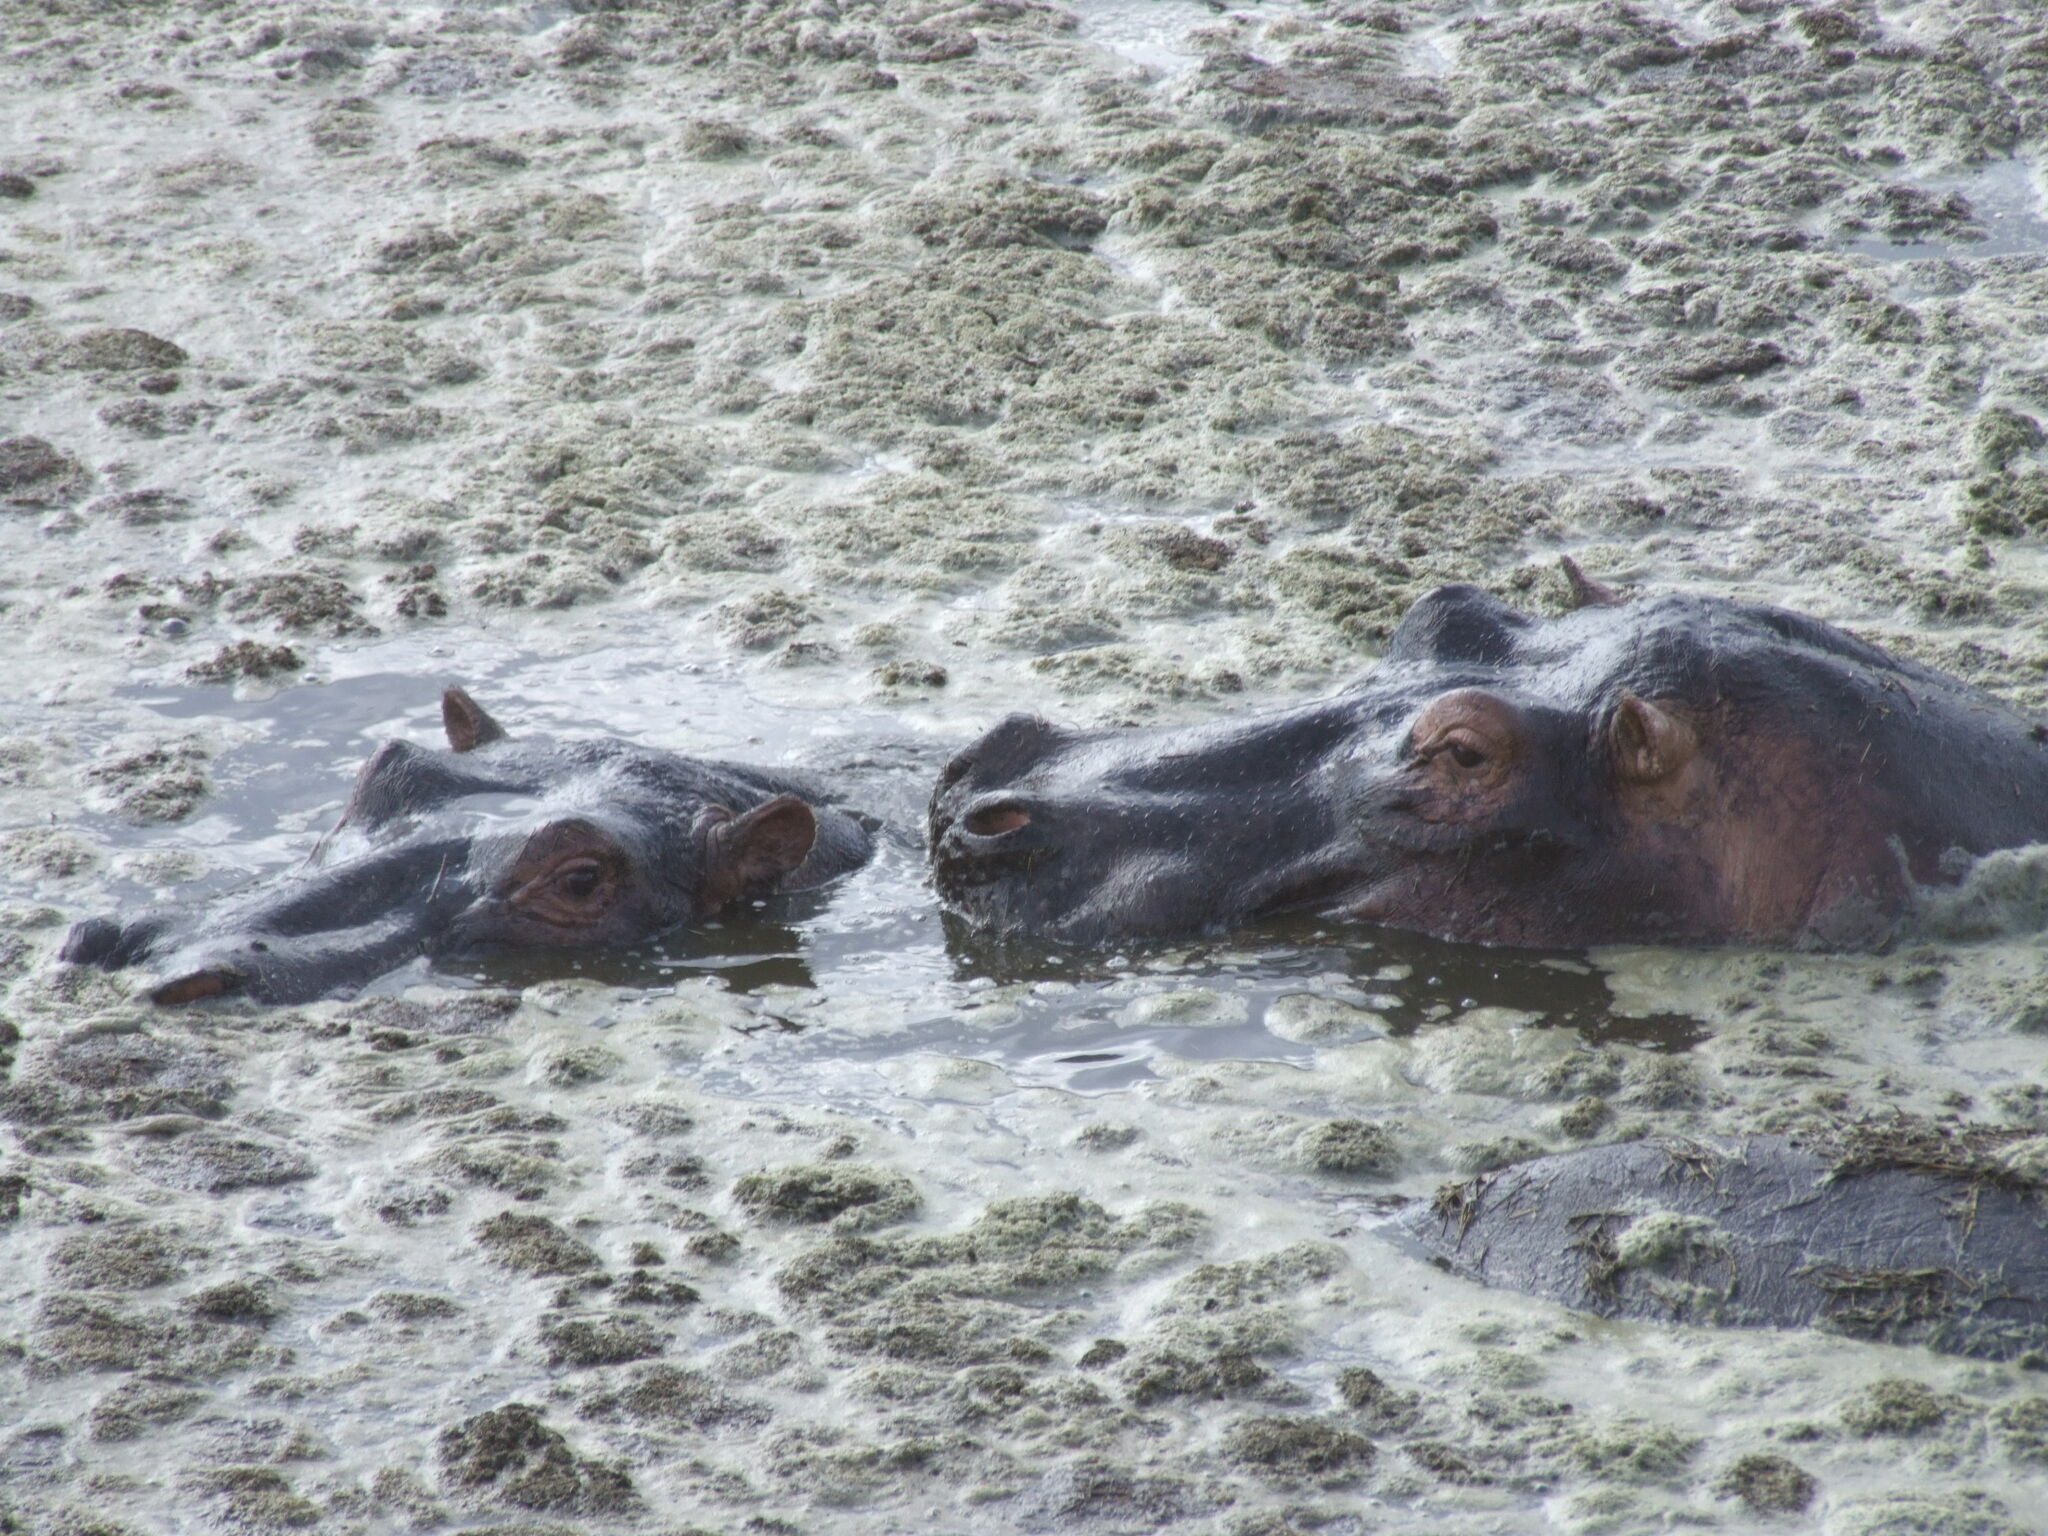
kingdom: Animalia
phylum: Chordata
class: Mammalia
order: Artiodactyla
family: Hippopotamidae
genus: Hippopotamus
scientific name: Hippopotamus amphibius
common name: Common hippopotamus
